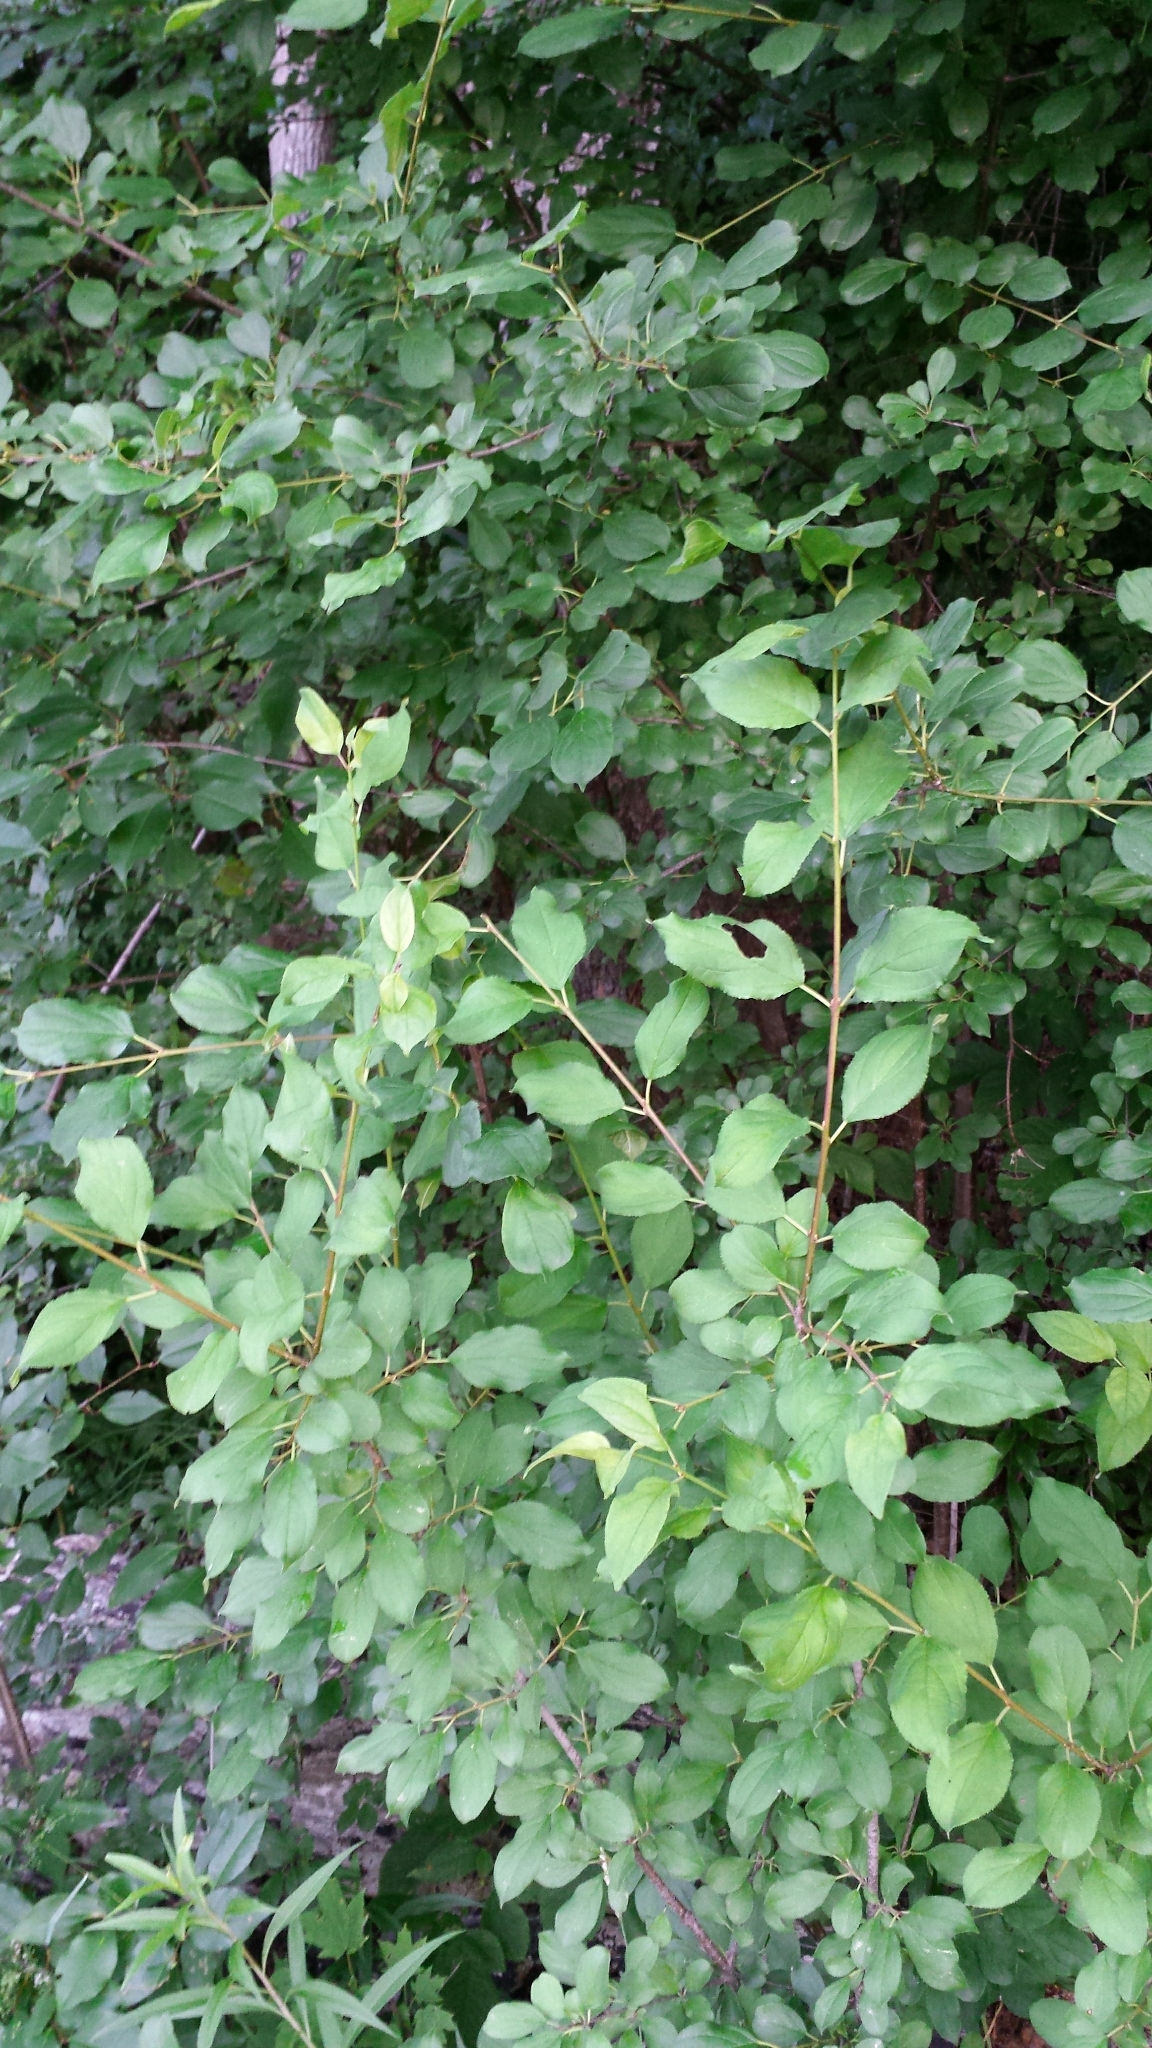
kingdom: Plantae
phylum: Tracheophyta
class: Magnoliopsida
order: Rosales
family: Rhamnaceae
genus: Rhamnus
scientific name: Rhamnus cathartica
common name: Common buckthorn
